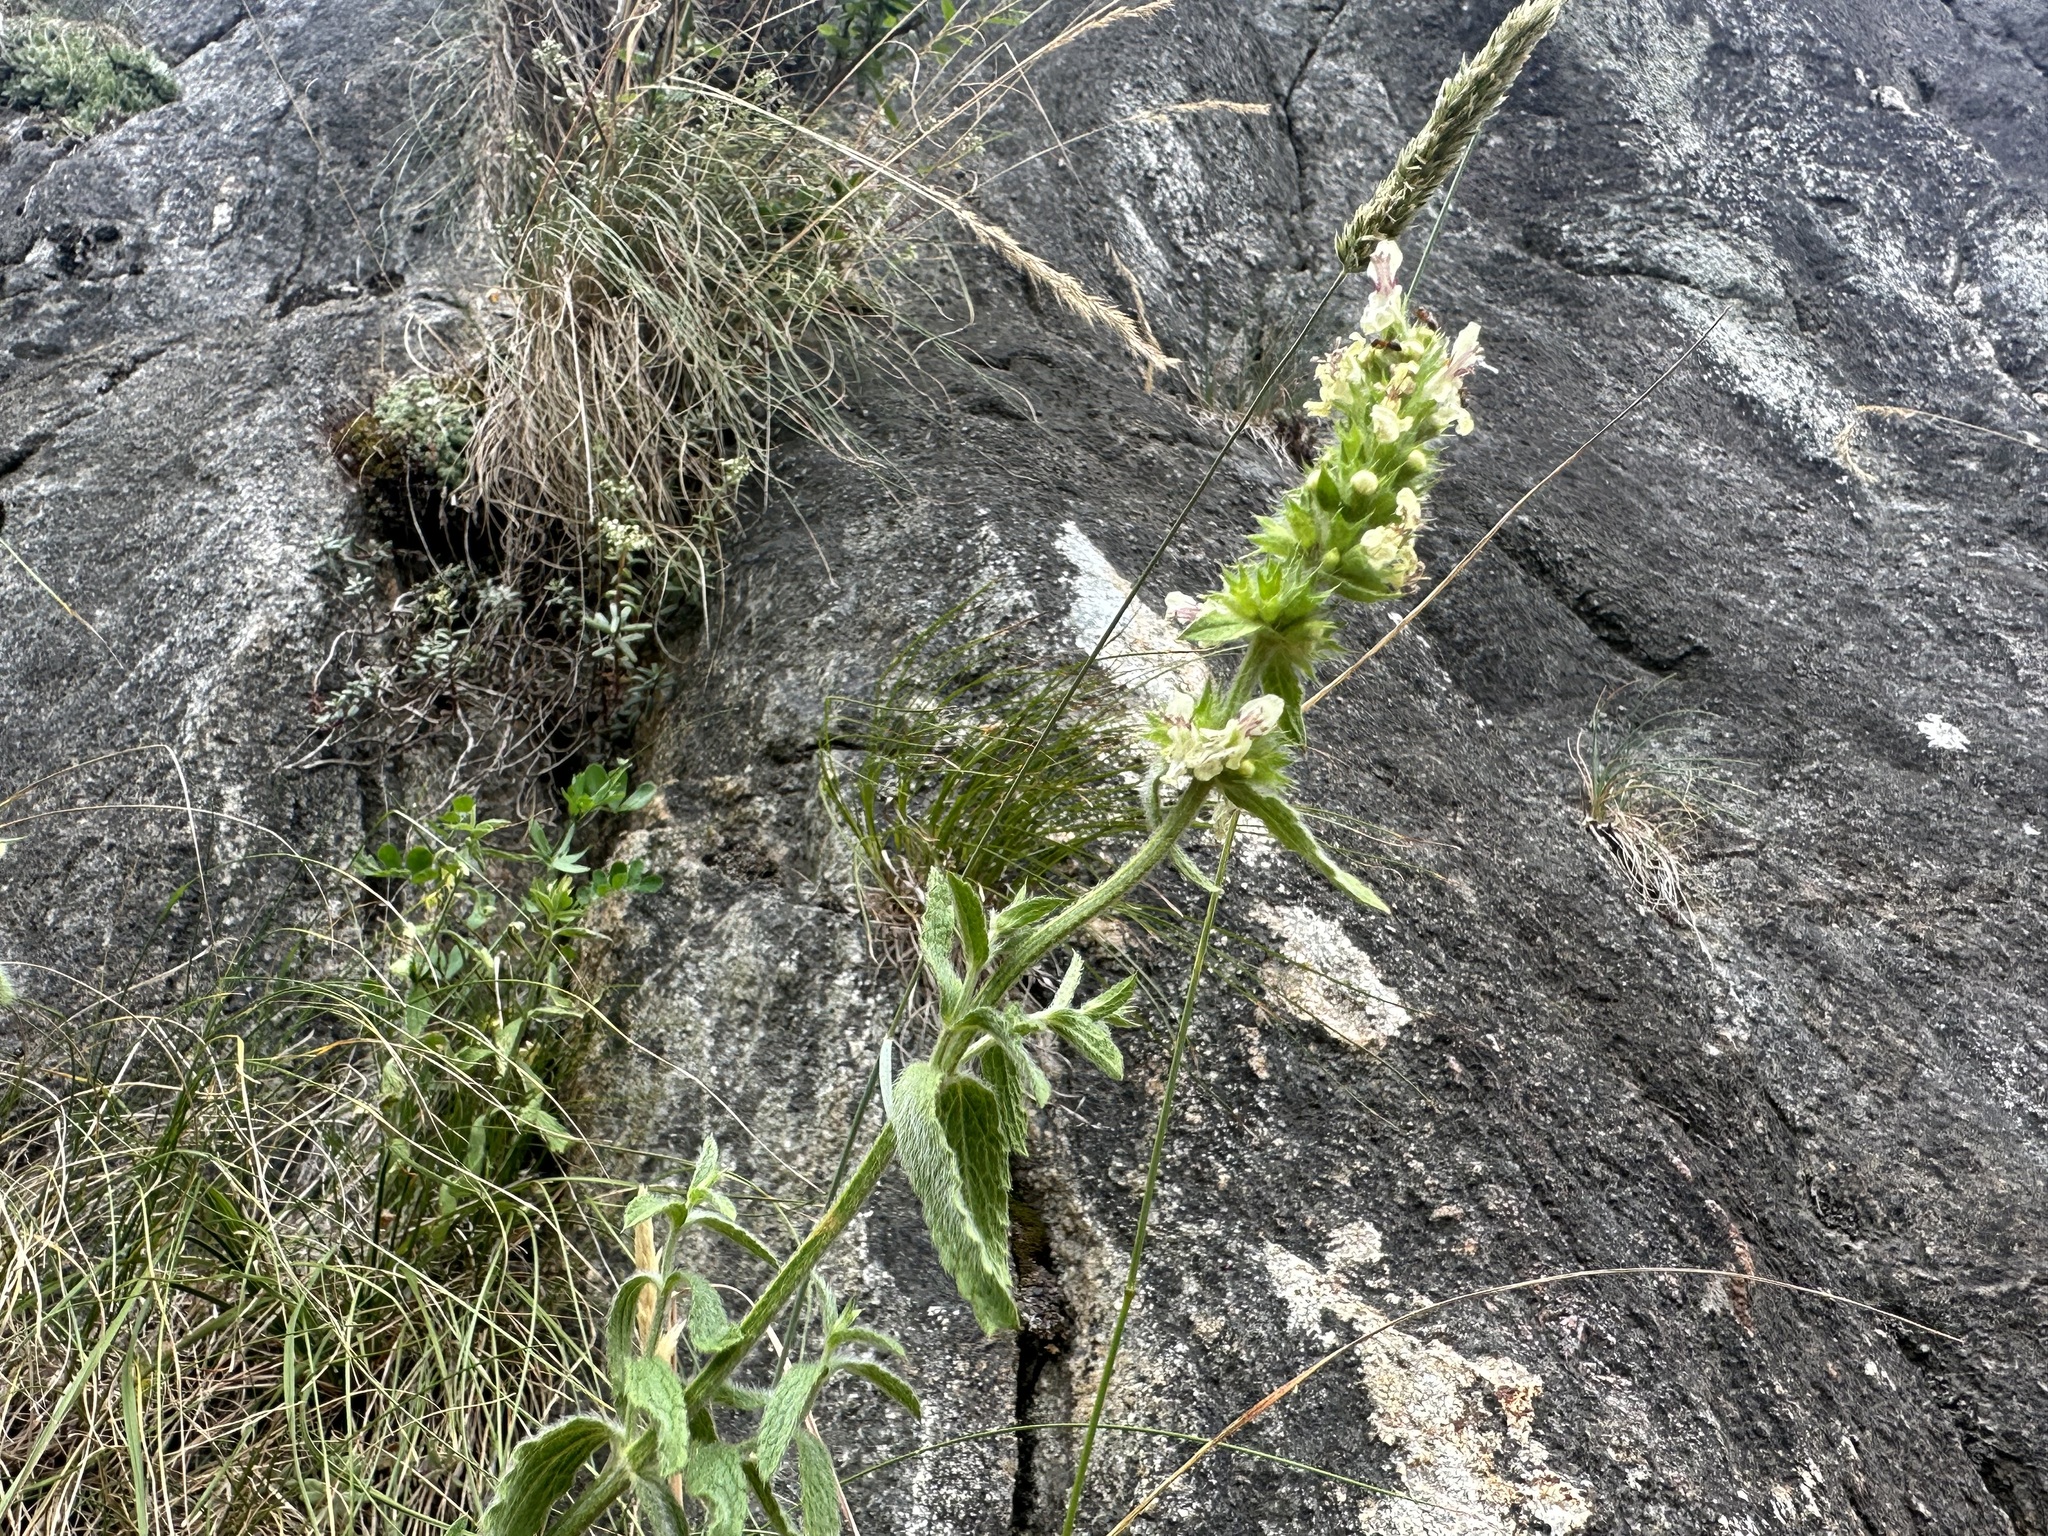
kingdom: Plantae
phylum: Tracheophyta
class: Magnoliopsida
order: Lamiales
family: Lamiaceae
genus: Stachys
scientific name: Stachys recta
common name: Perennial yellow-woundwort
